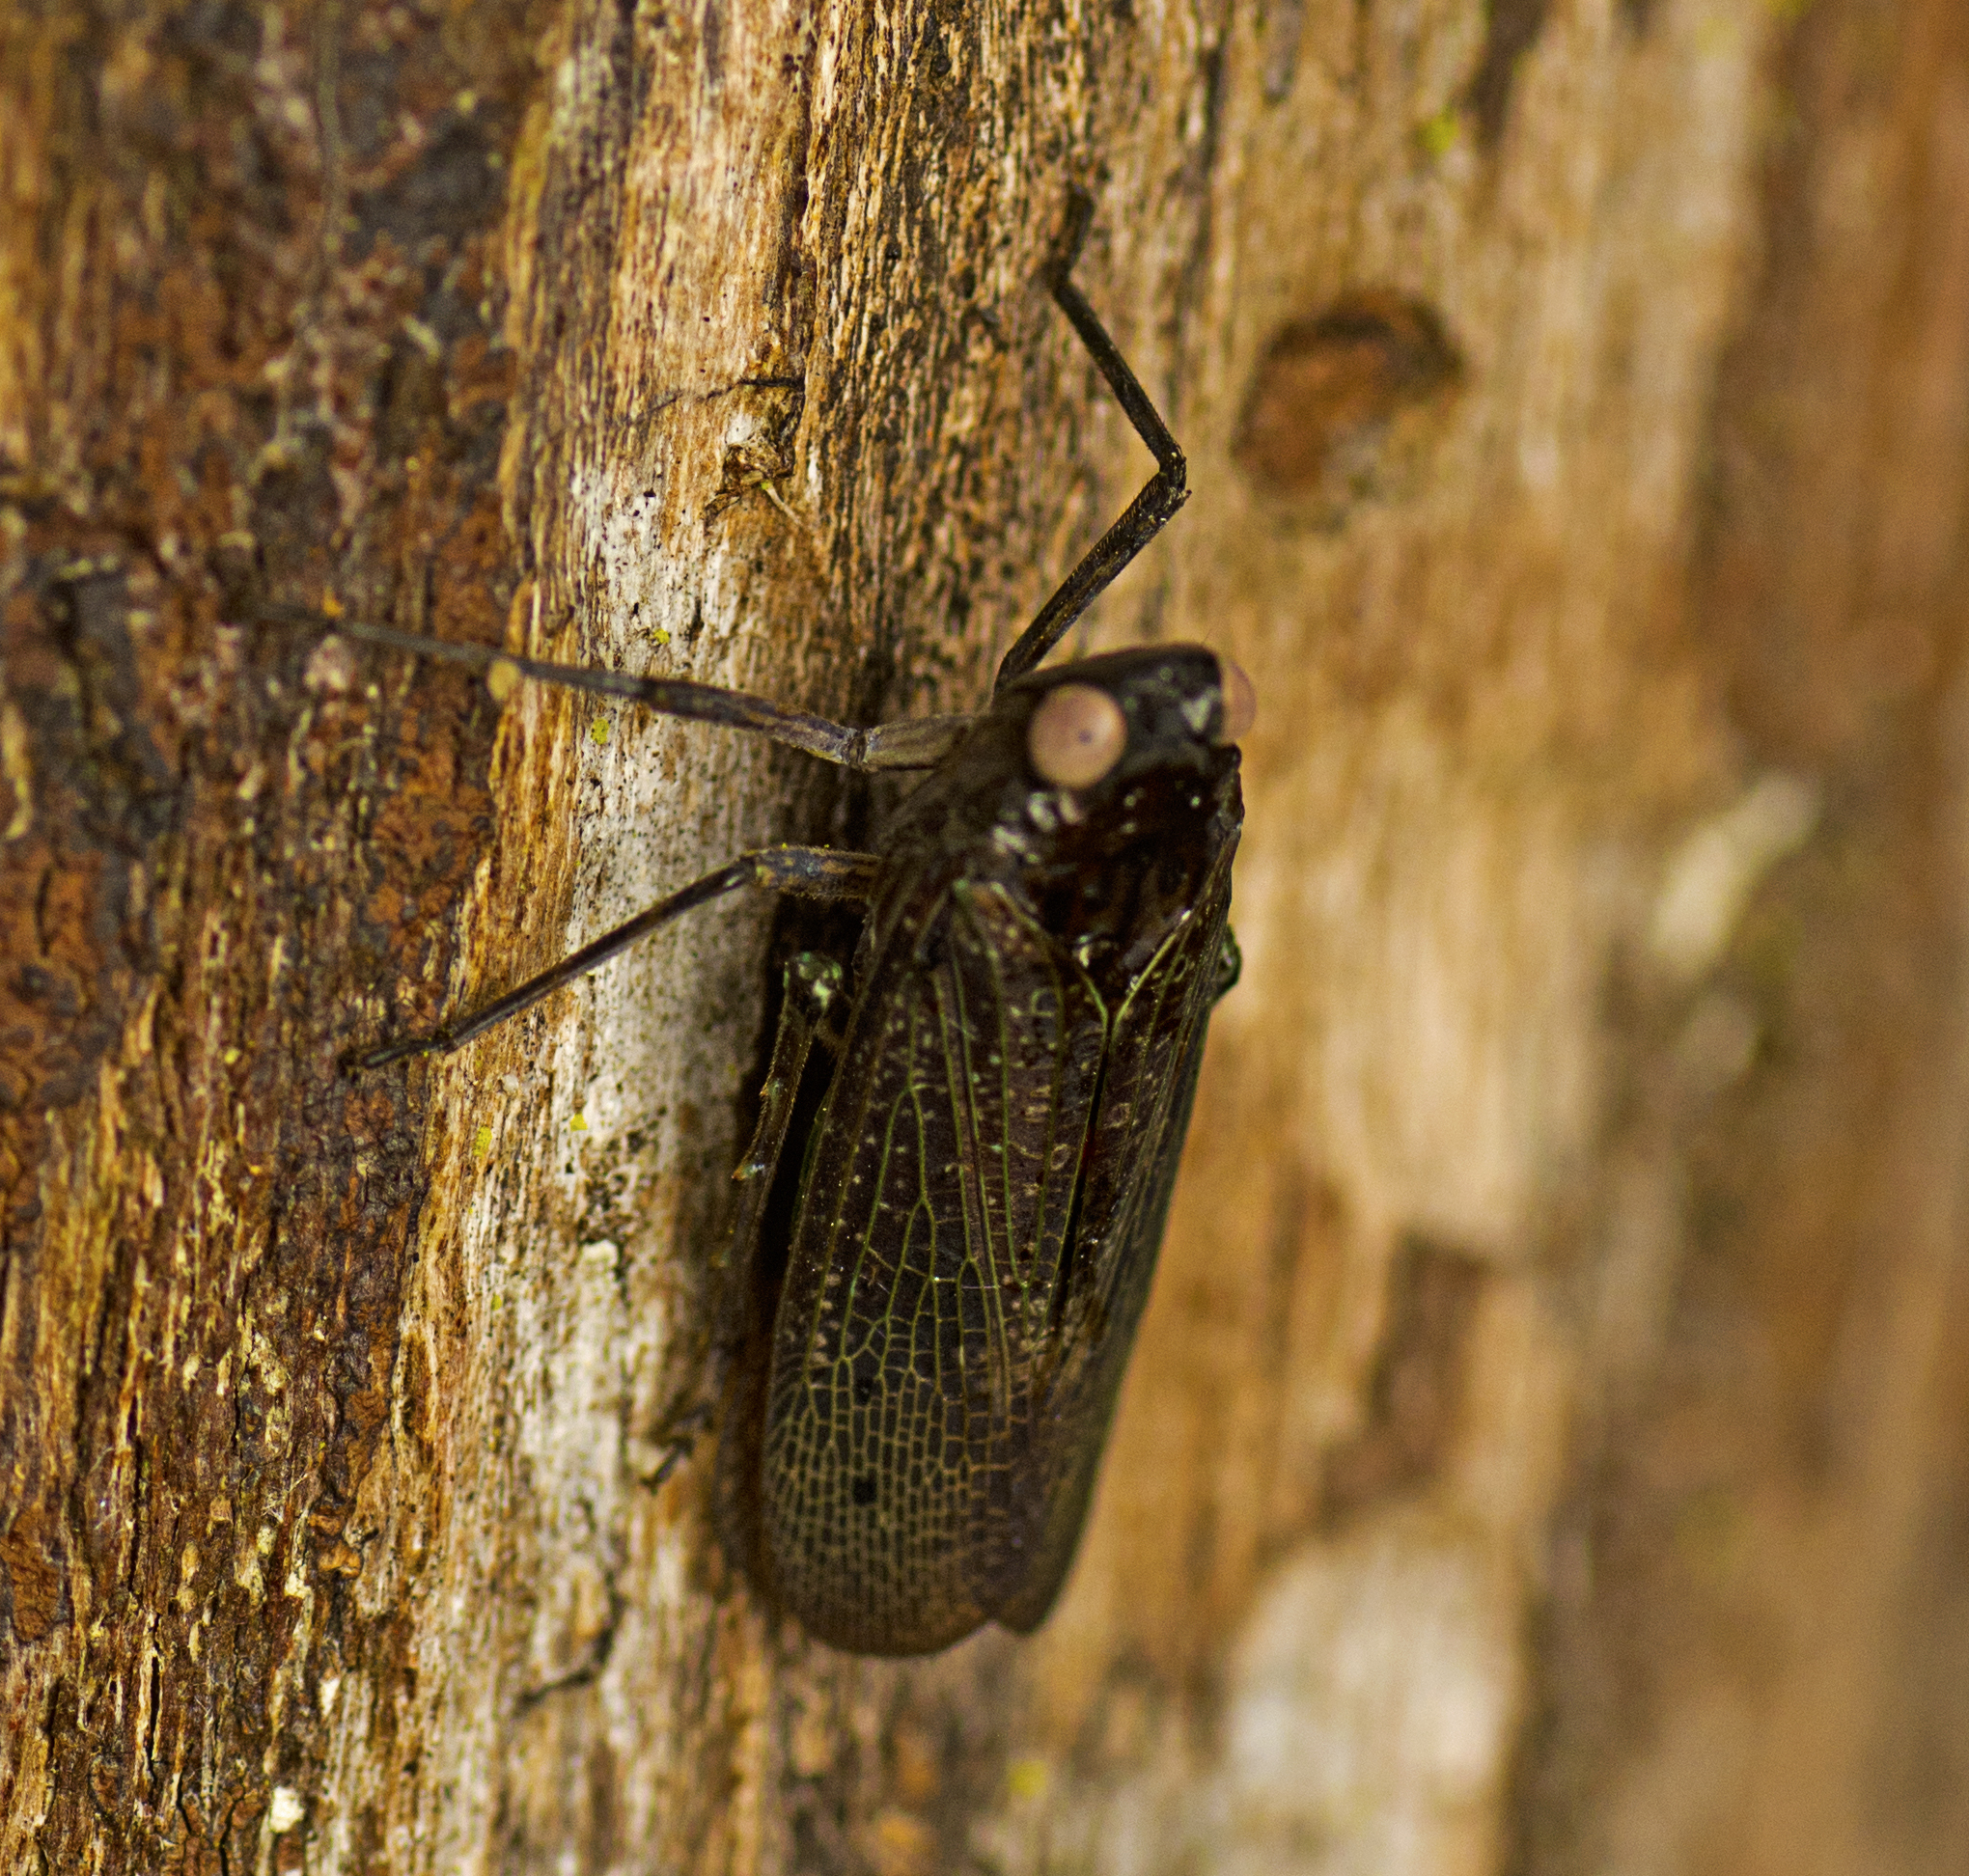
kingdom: Animalia
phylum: Arthropoda
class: Insecta
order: Hemiptera
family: Fulgoridae
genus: Desudaba
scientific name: Desudaba aulica
